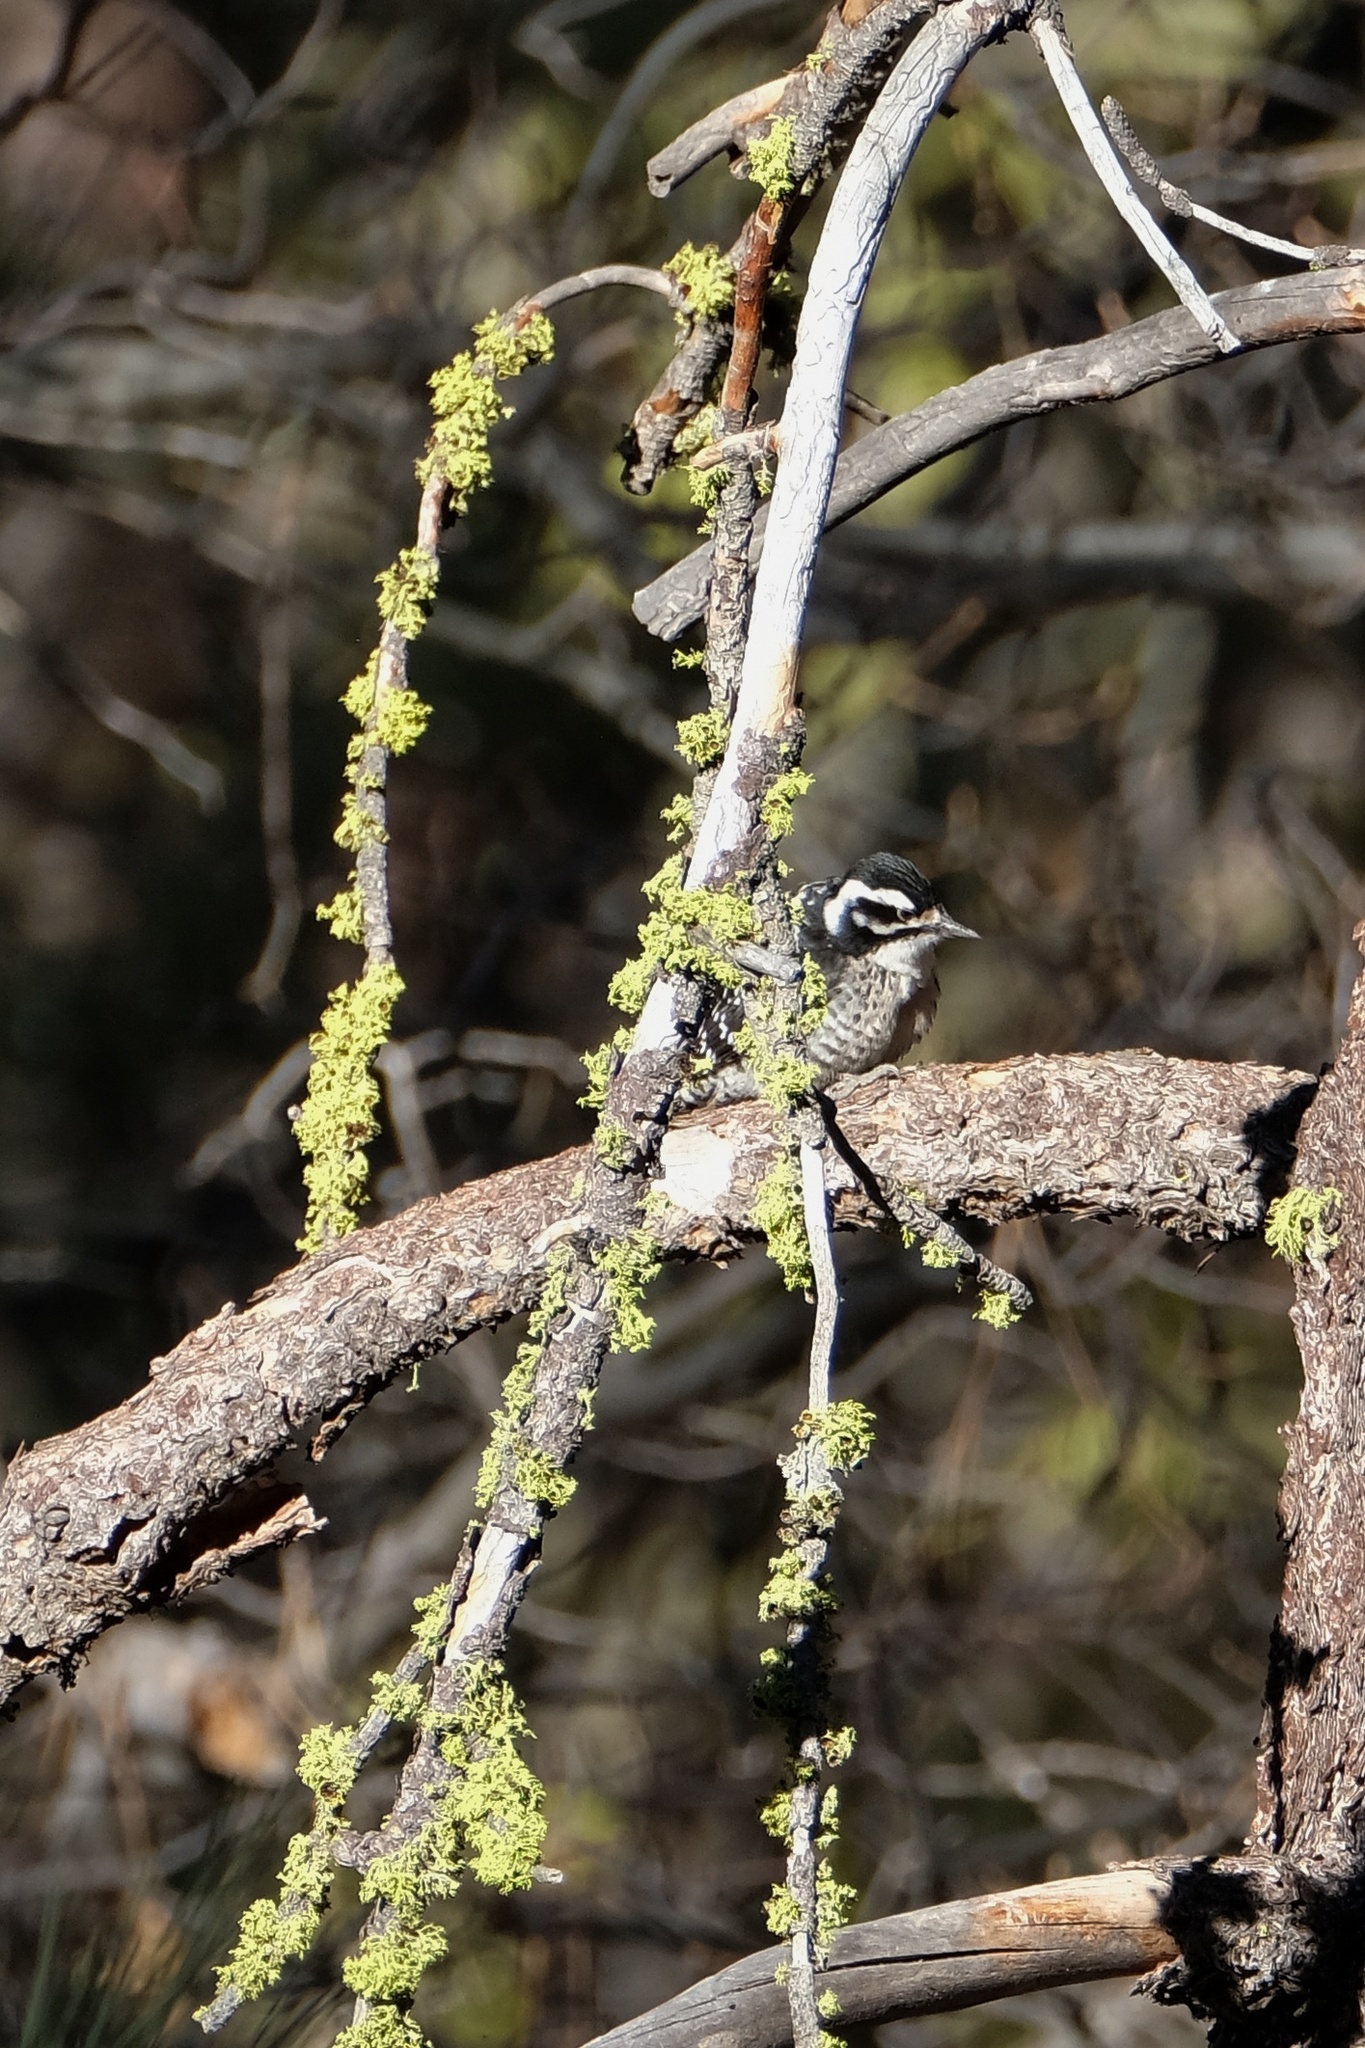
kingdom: Animalia
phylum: Chordata
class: Aves
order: Piciformes
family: Picidae
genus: Dryobates
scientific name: Dryobates nuttallii
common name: Nuttall's woodpecker
